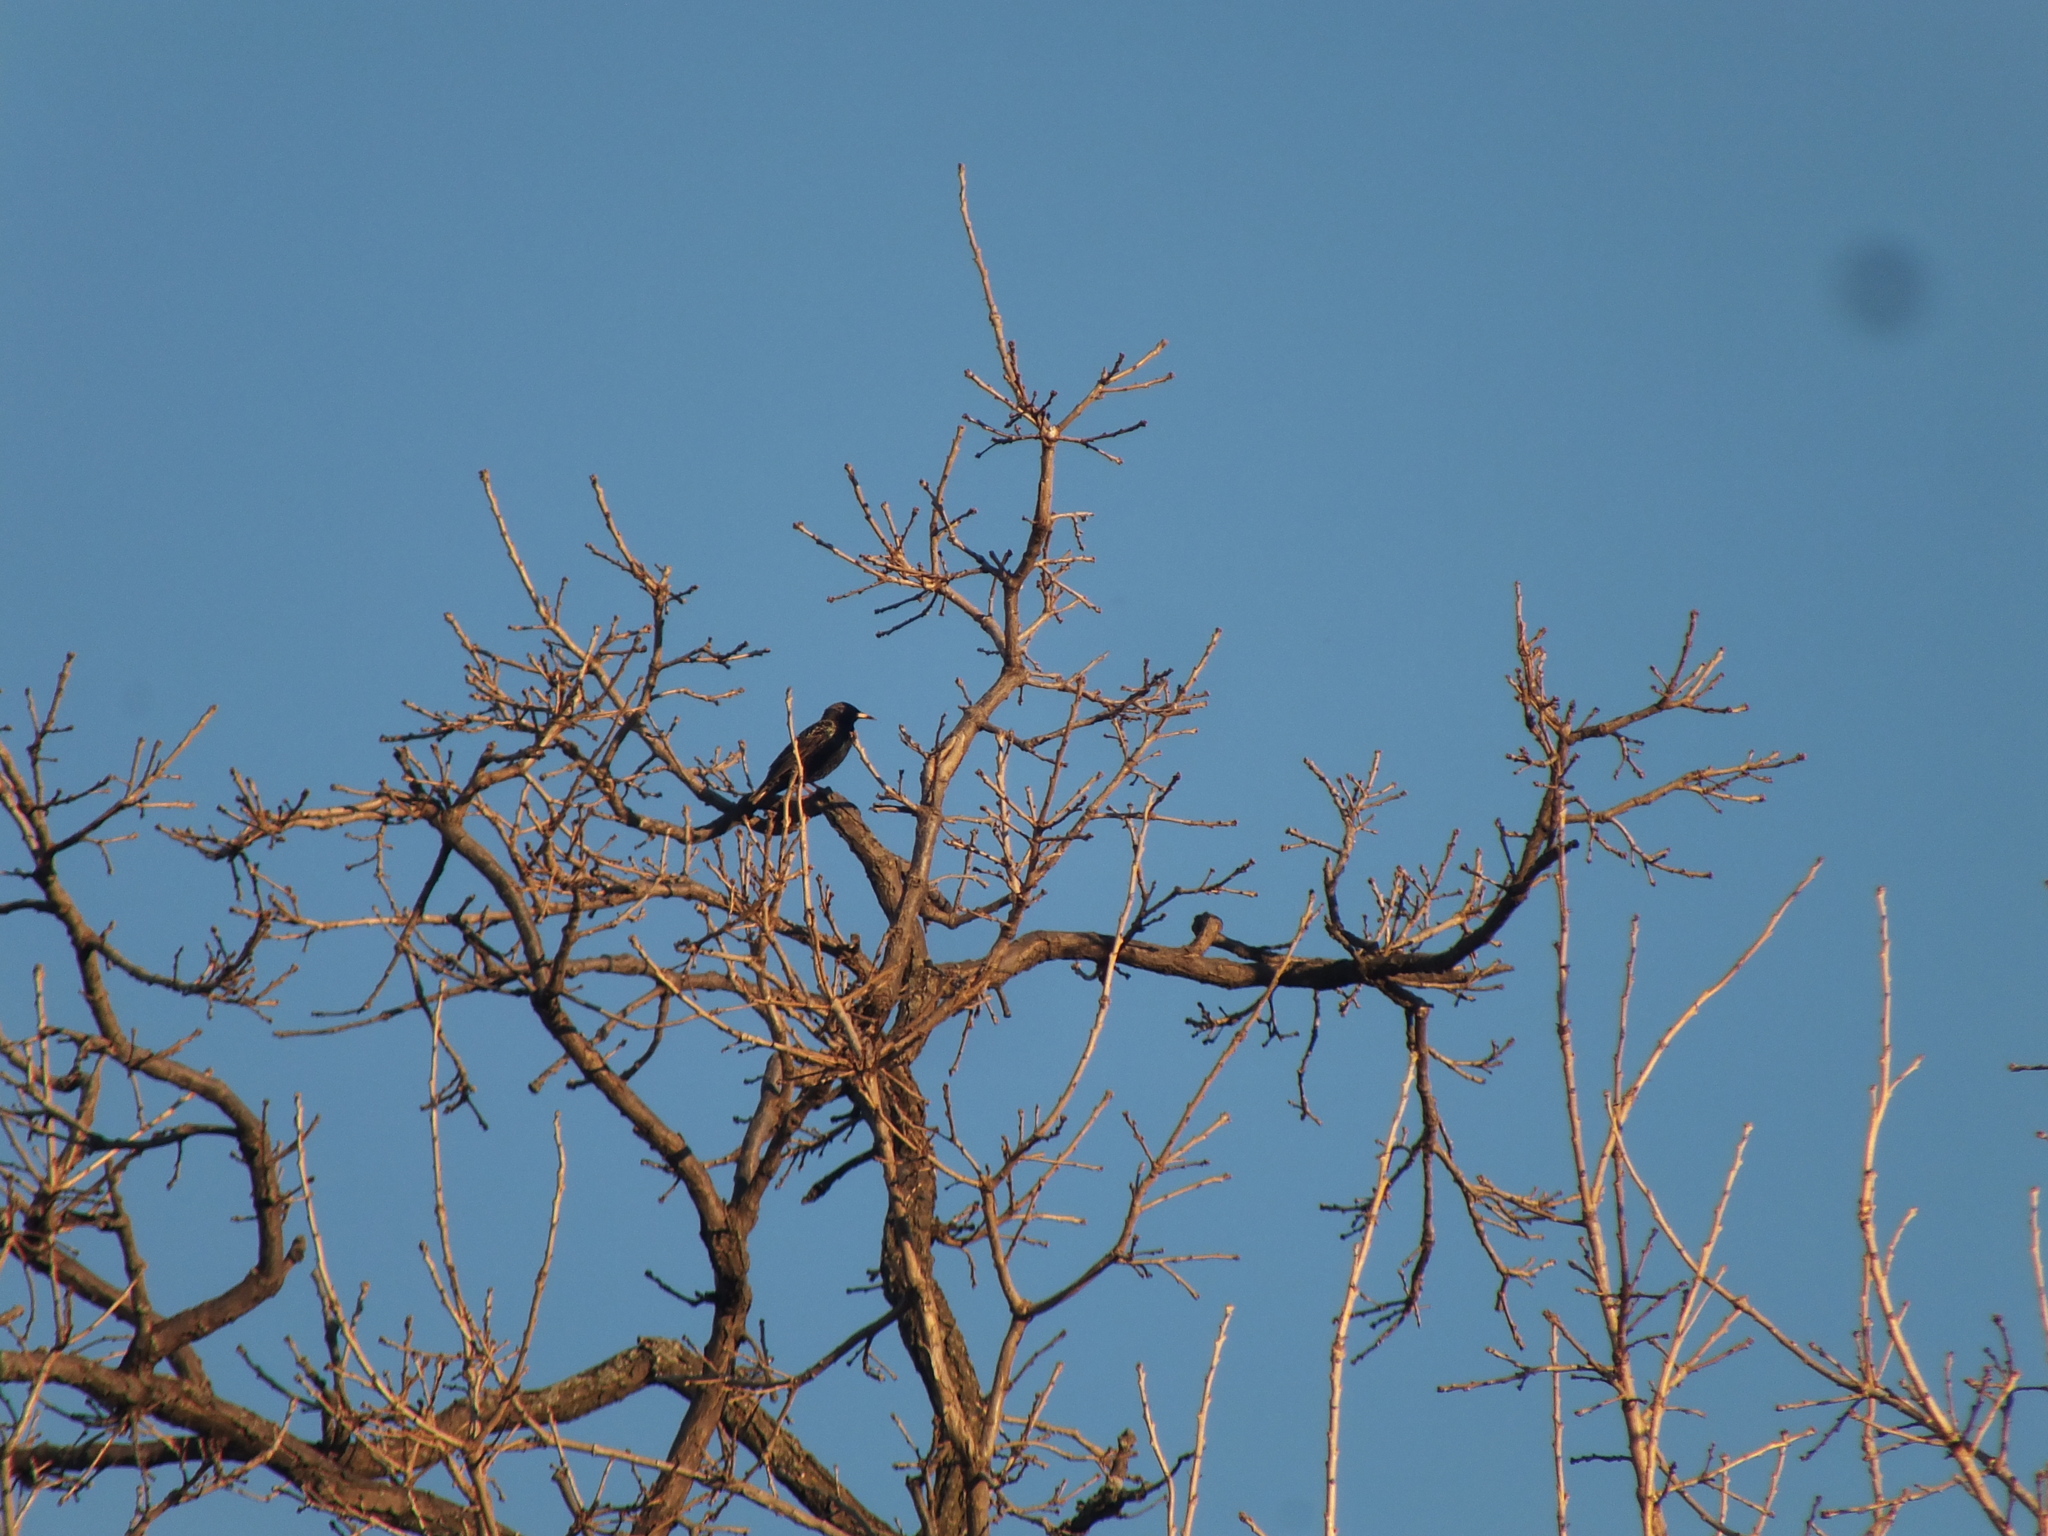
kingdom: Animalia
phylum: Chordata
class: Aves
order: Passeriformes
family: Sturnidae
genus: Sturnus
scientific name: Sturnus vulgaris
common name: Common starling
